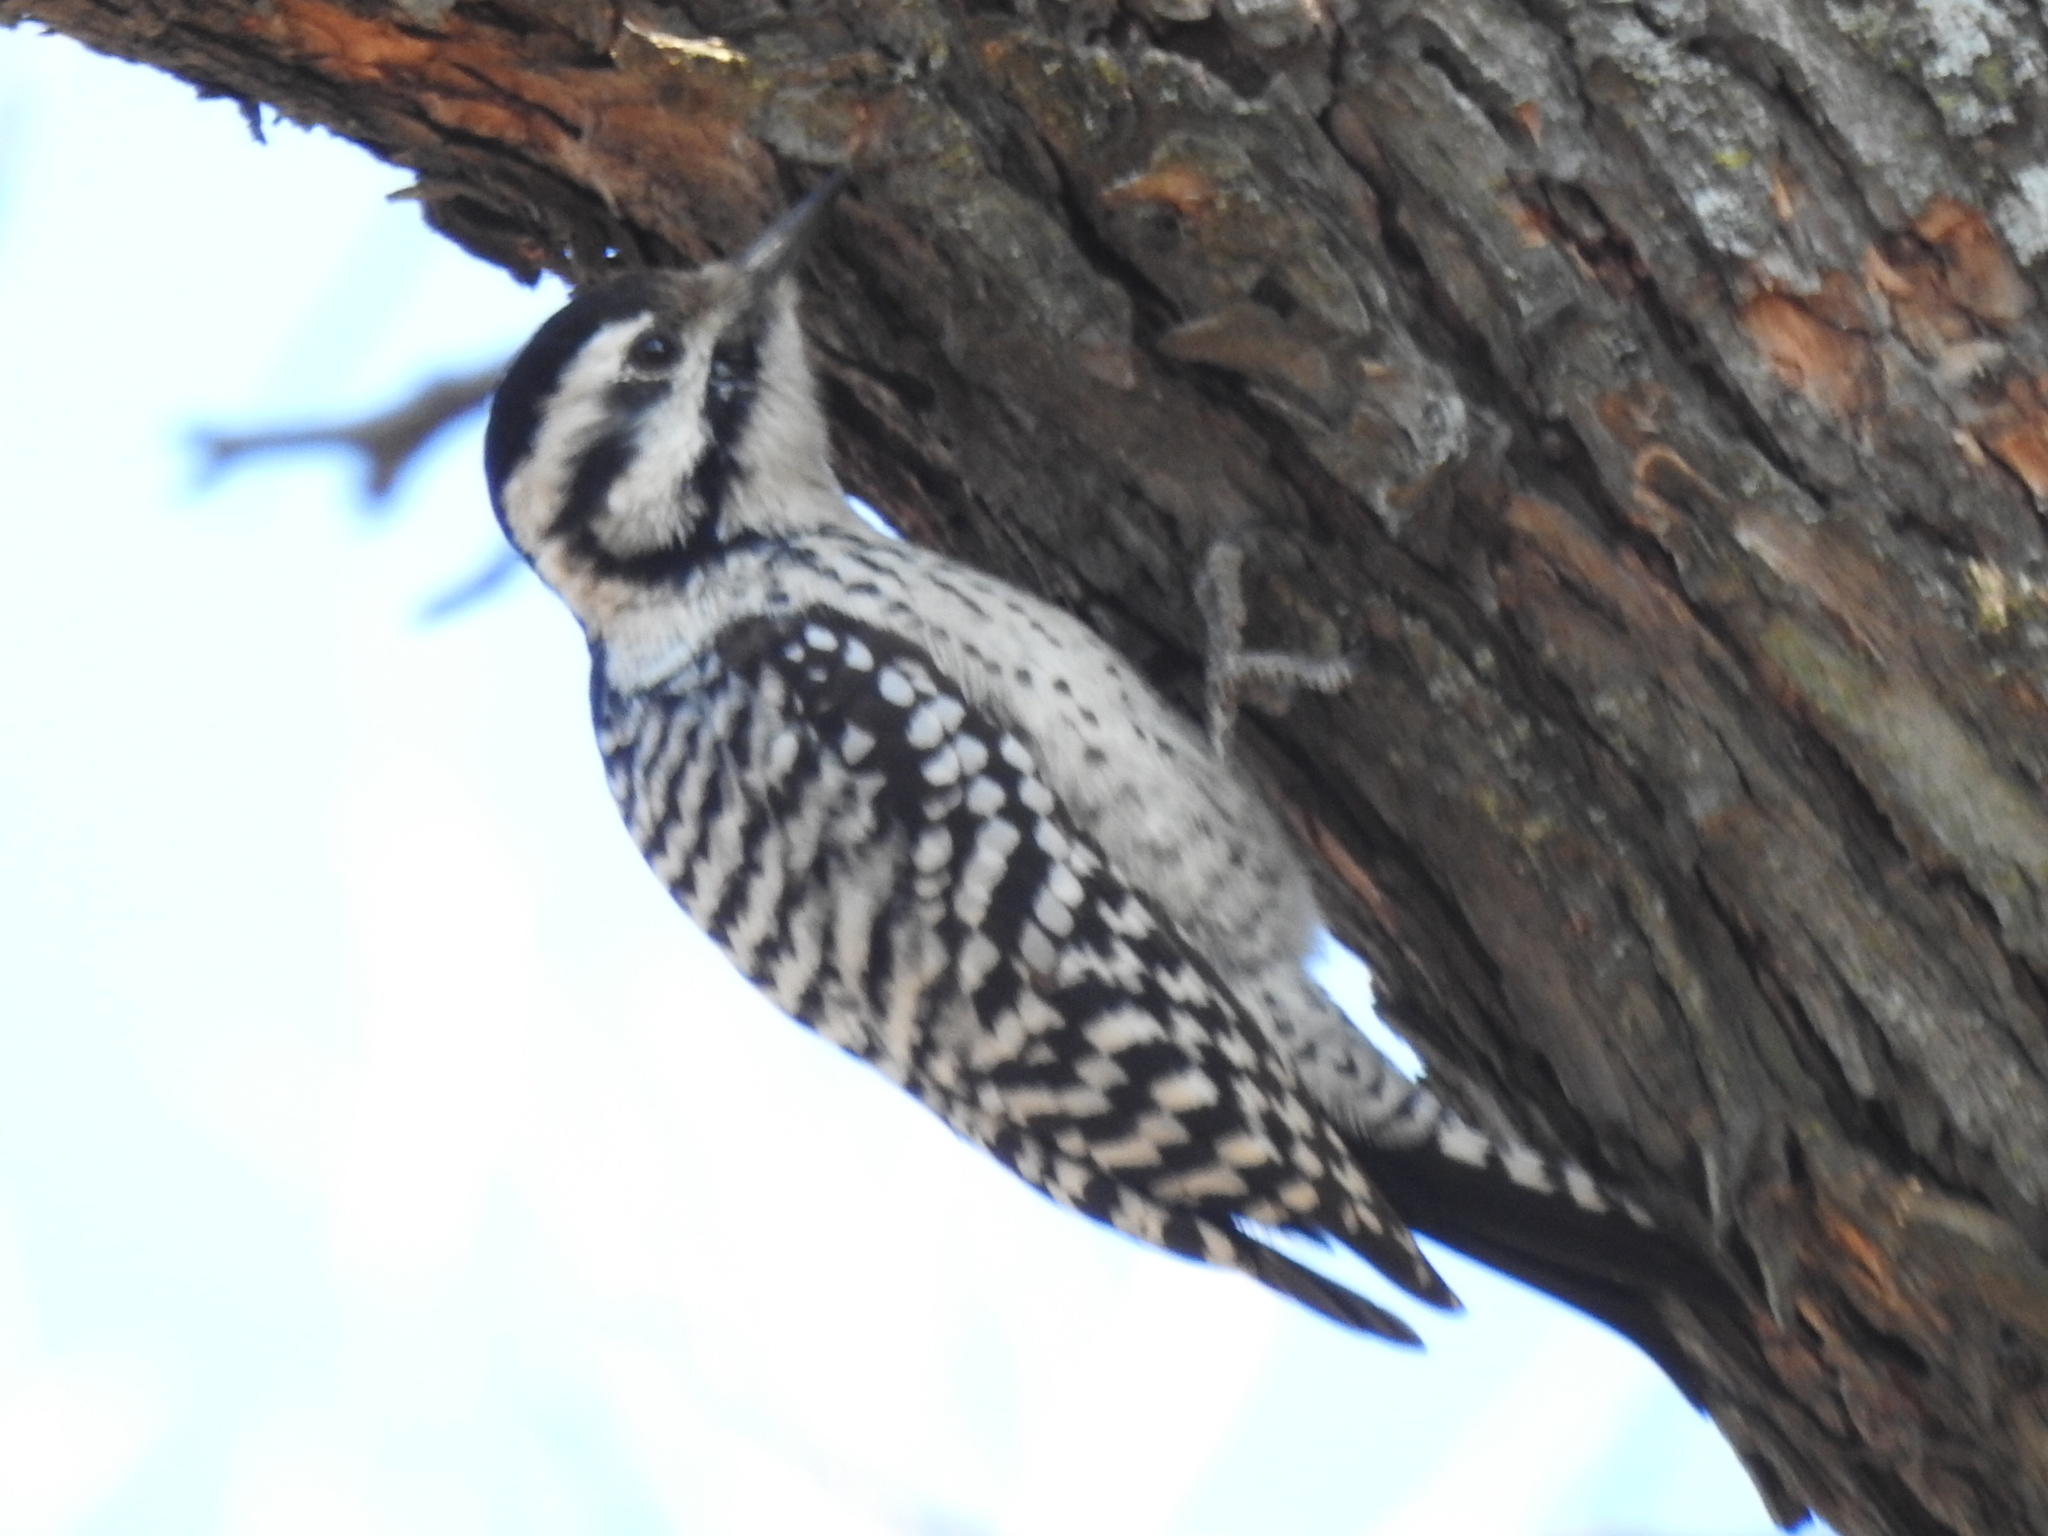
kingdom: Animalia
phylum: Chordata
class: Aves
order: Piciformes
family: Picidae
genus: Dryobates
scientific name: Dryobates scalaris
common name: Ladder-backed woodpecker
